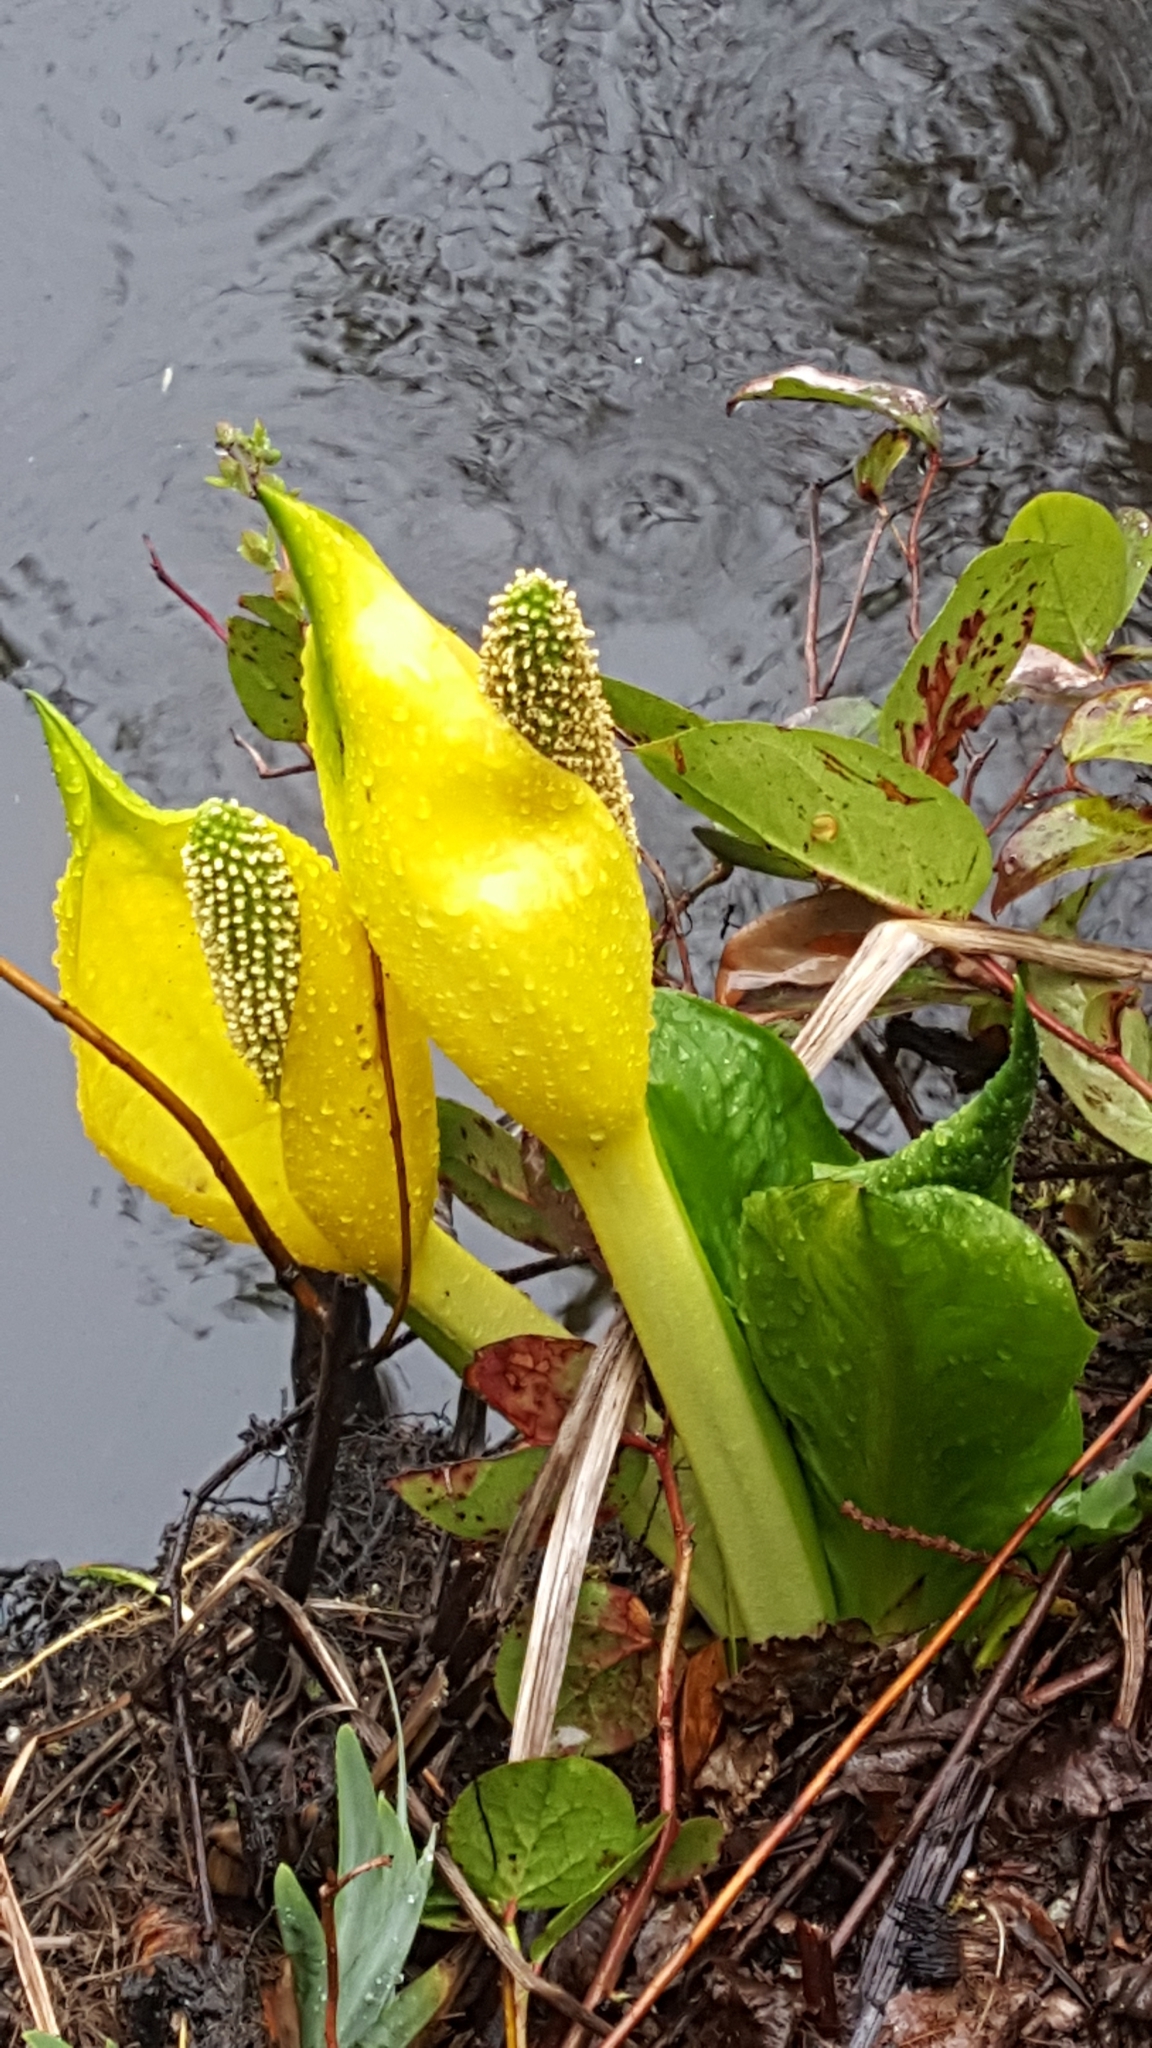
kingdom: Plantae
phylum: Tracheophyta
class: Liliopsida
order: Alismatales
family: Araceae
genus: Lysichiton
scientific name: Lysichiton americanus
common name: American skunk cabbage
